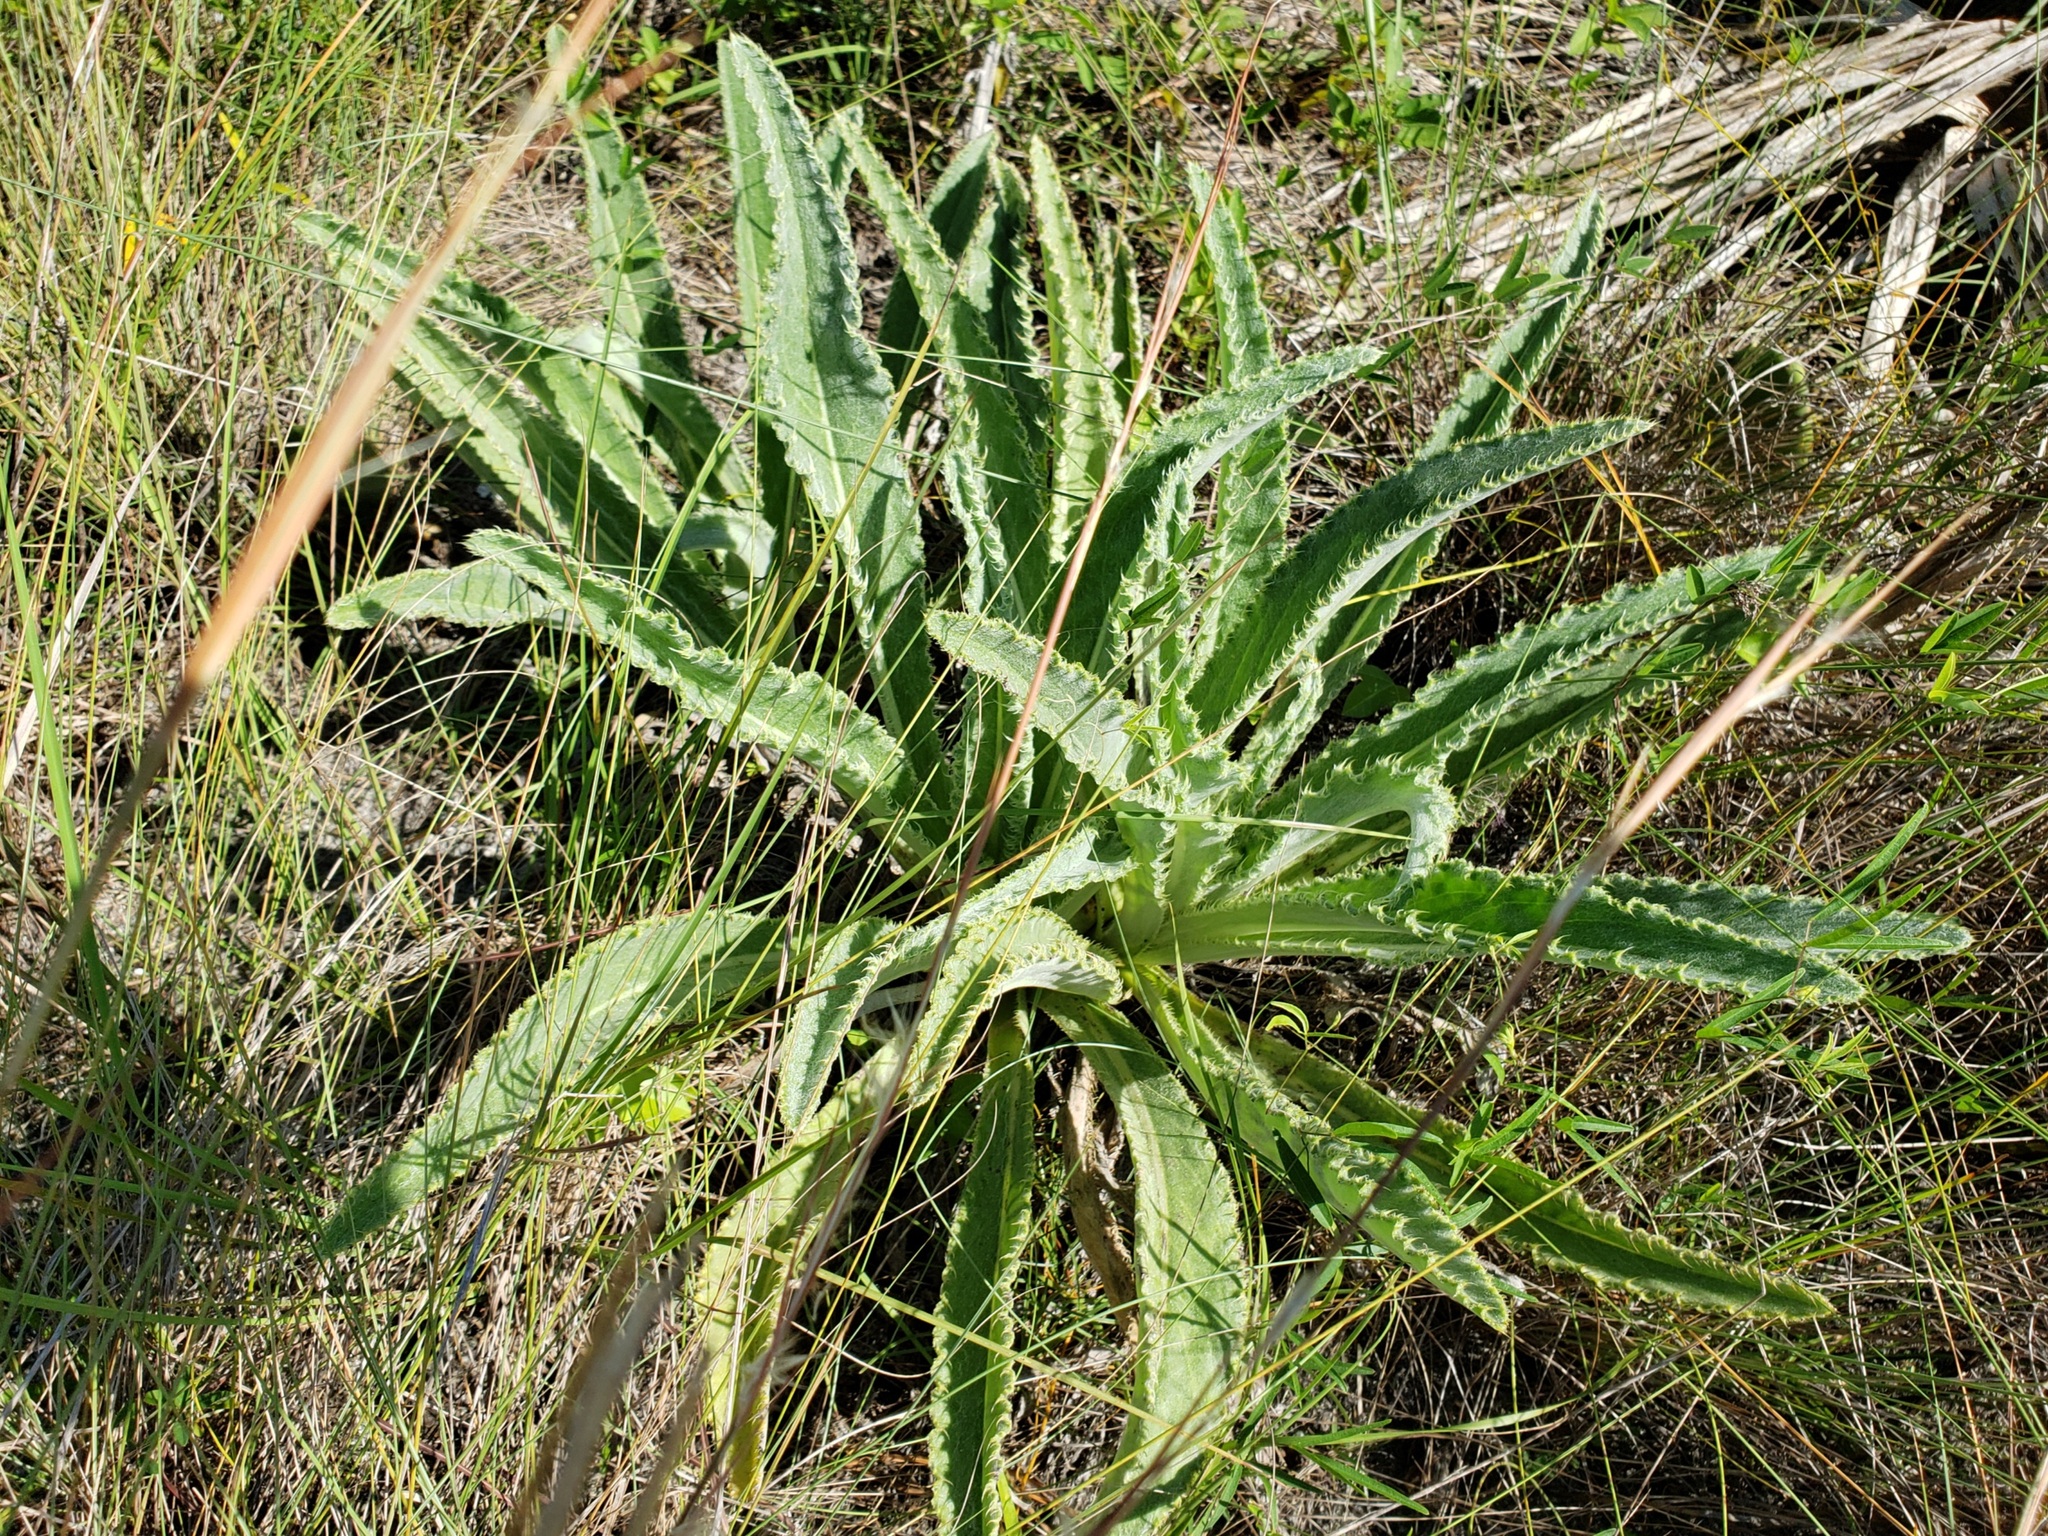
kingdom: Plantae
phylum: Tracheophyta
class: Magnoliopsida
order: Asterales
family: Asteraceae
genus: Cirsium
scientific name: Cirsium horridulum
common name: Bristly thistle
